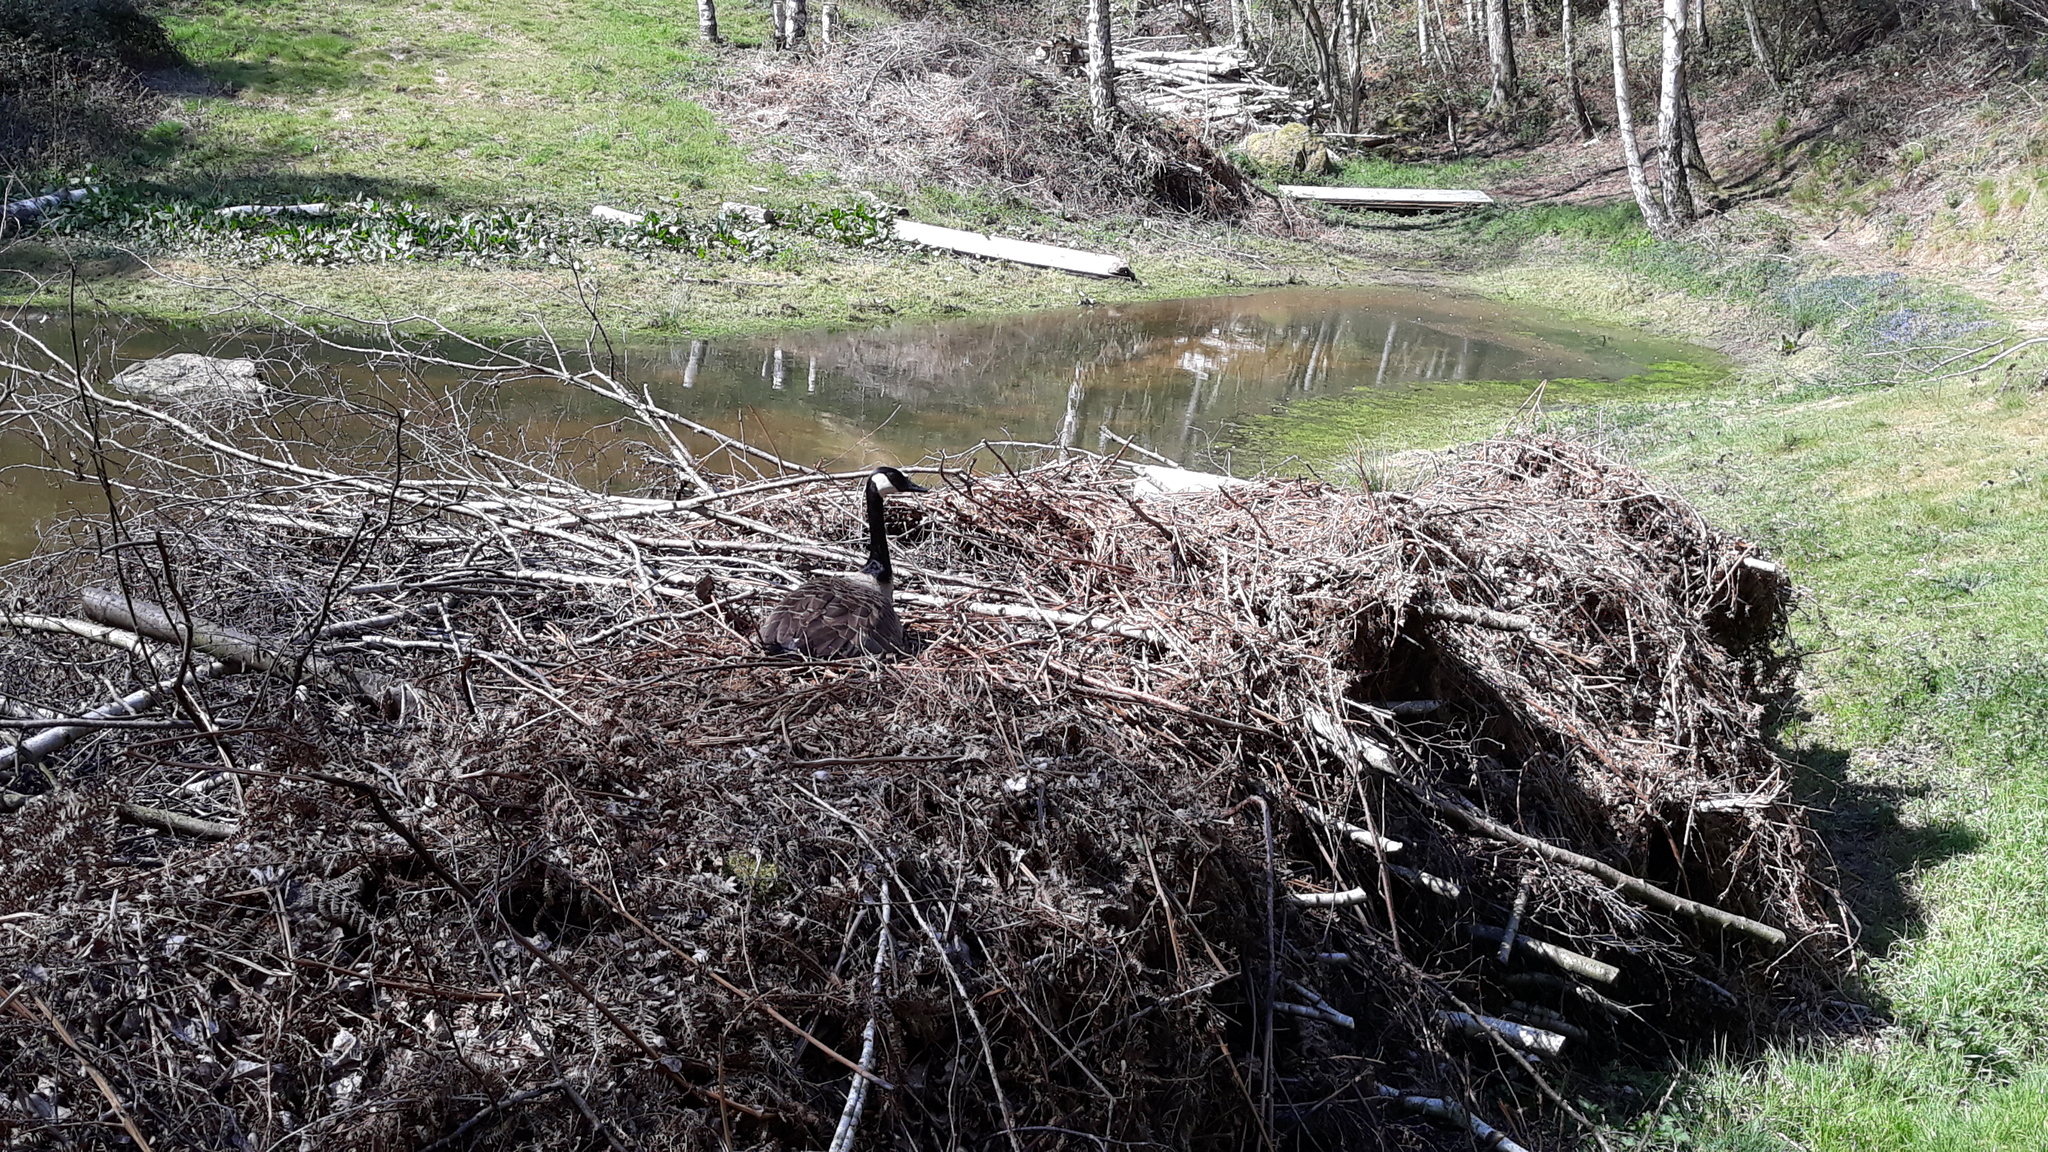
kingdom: Animalia
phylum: Chordata
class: Aves
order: Anseriformes
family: Anatidae
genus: Branta
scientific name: Branta canadensis
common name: Canada goose
